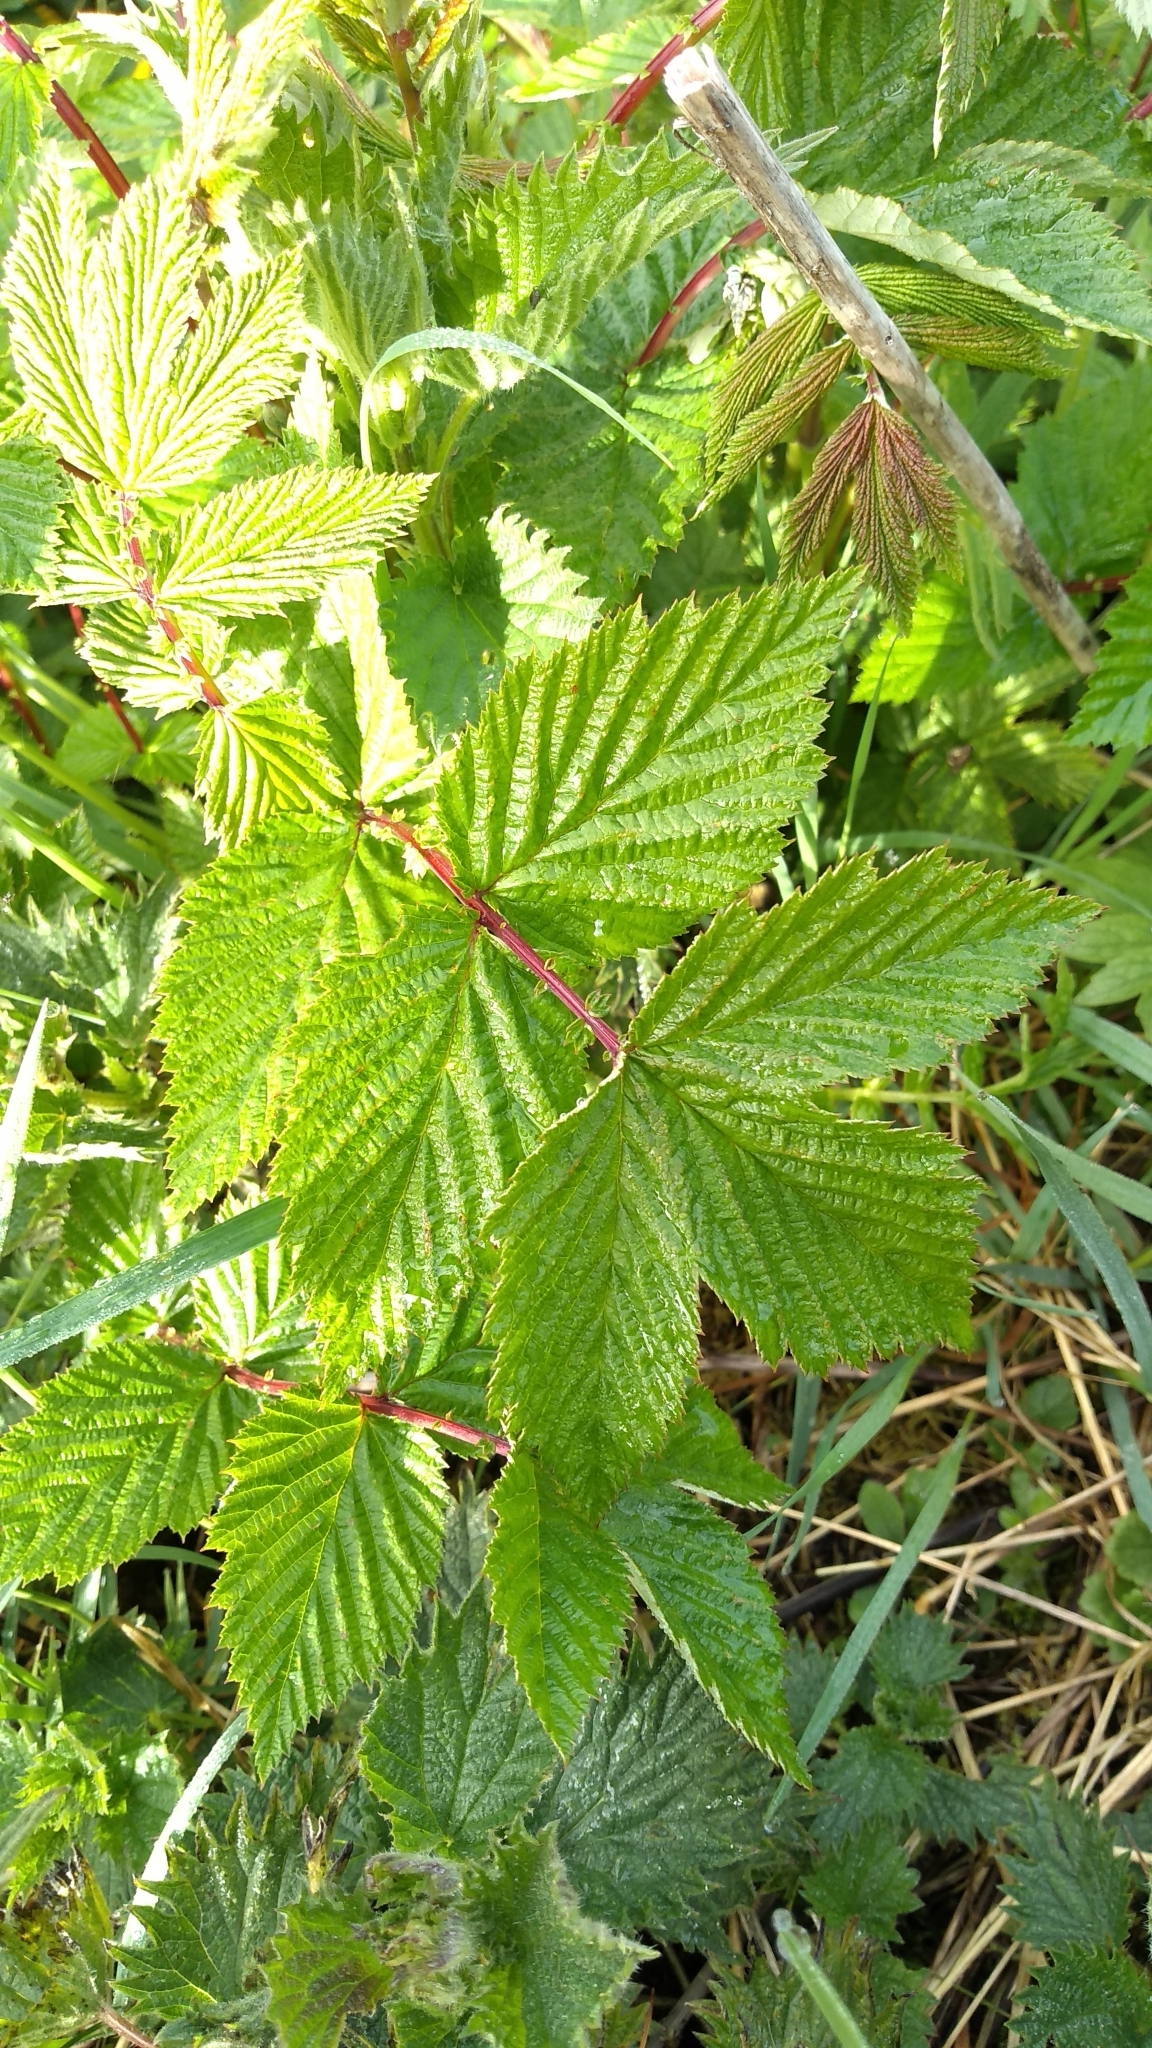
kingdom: Plantae
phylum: Tracheophyta
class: Magnoliopsida
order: Rosales
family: Rosaceae
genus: Filipendula
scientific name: Filipendula ulmaria
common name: Meadowsweet
